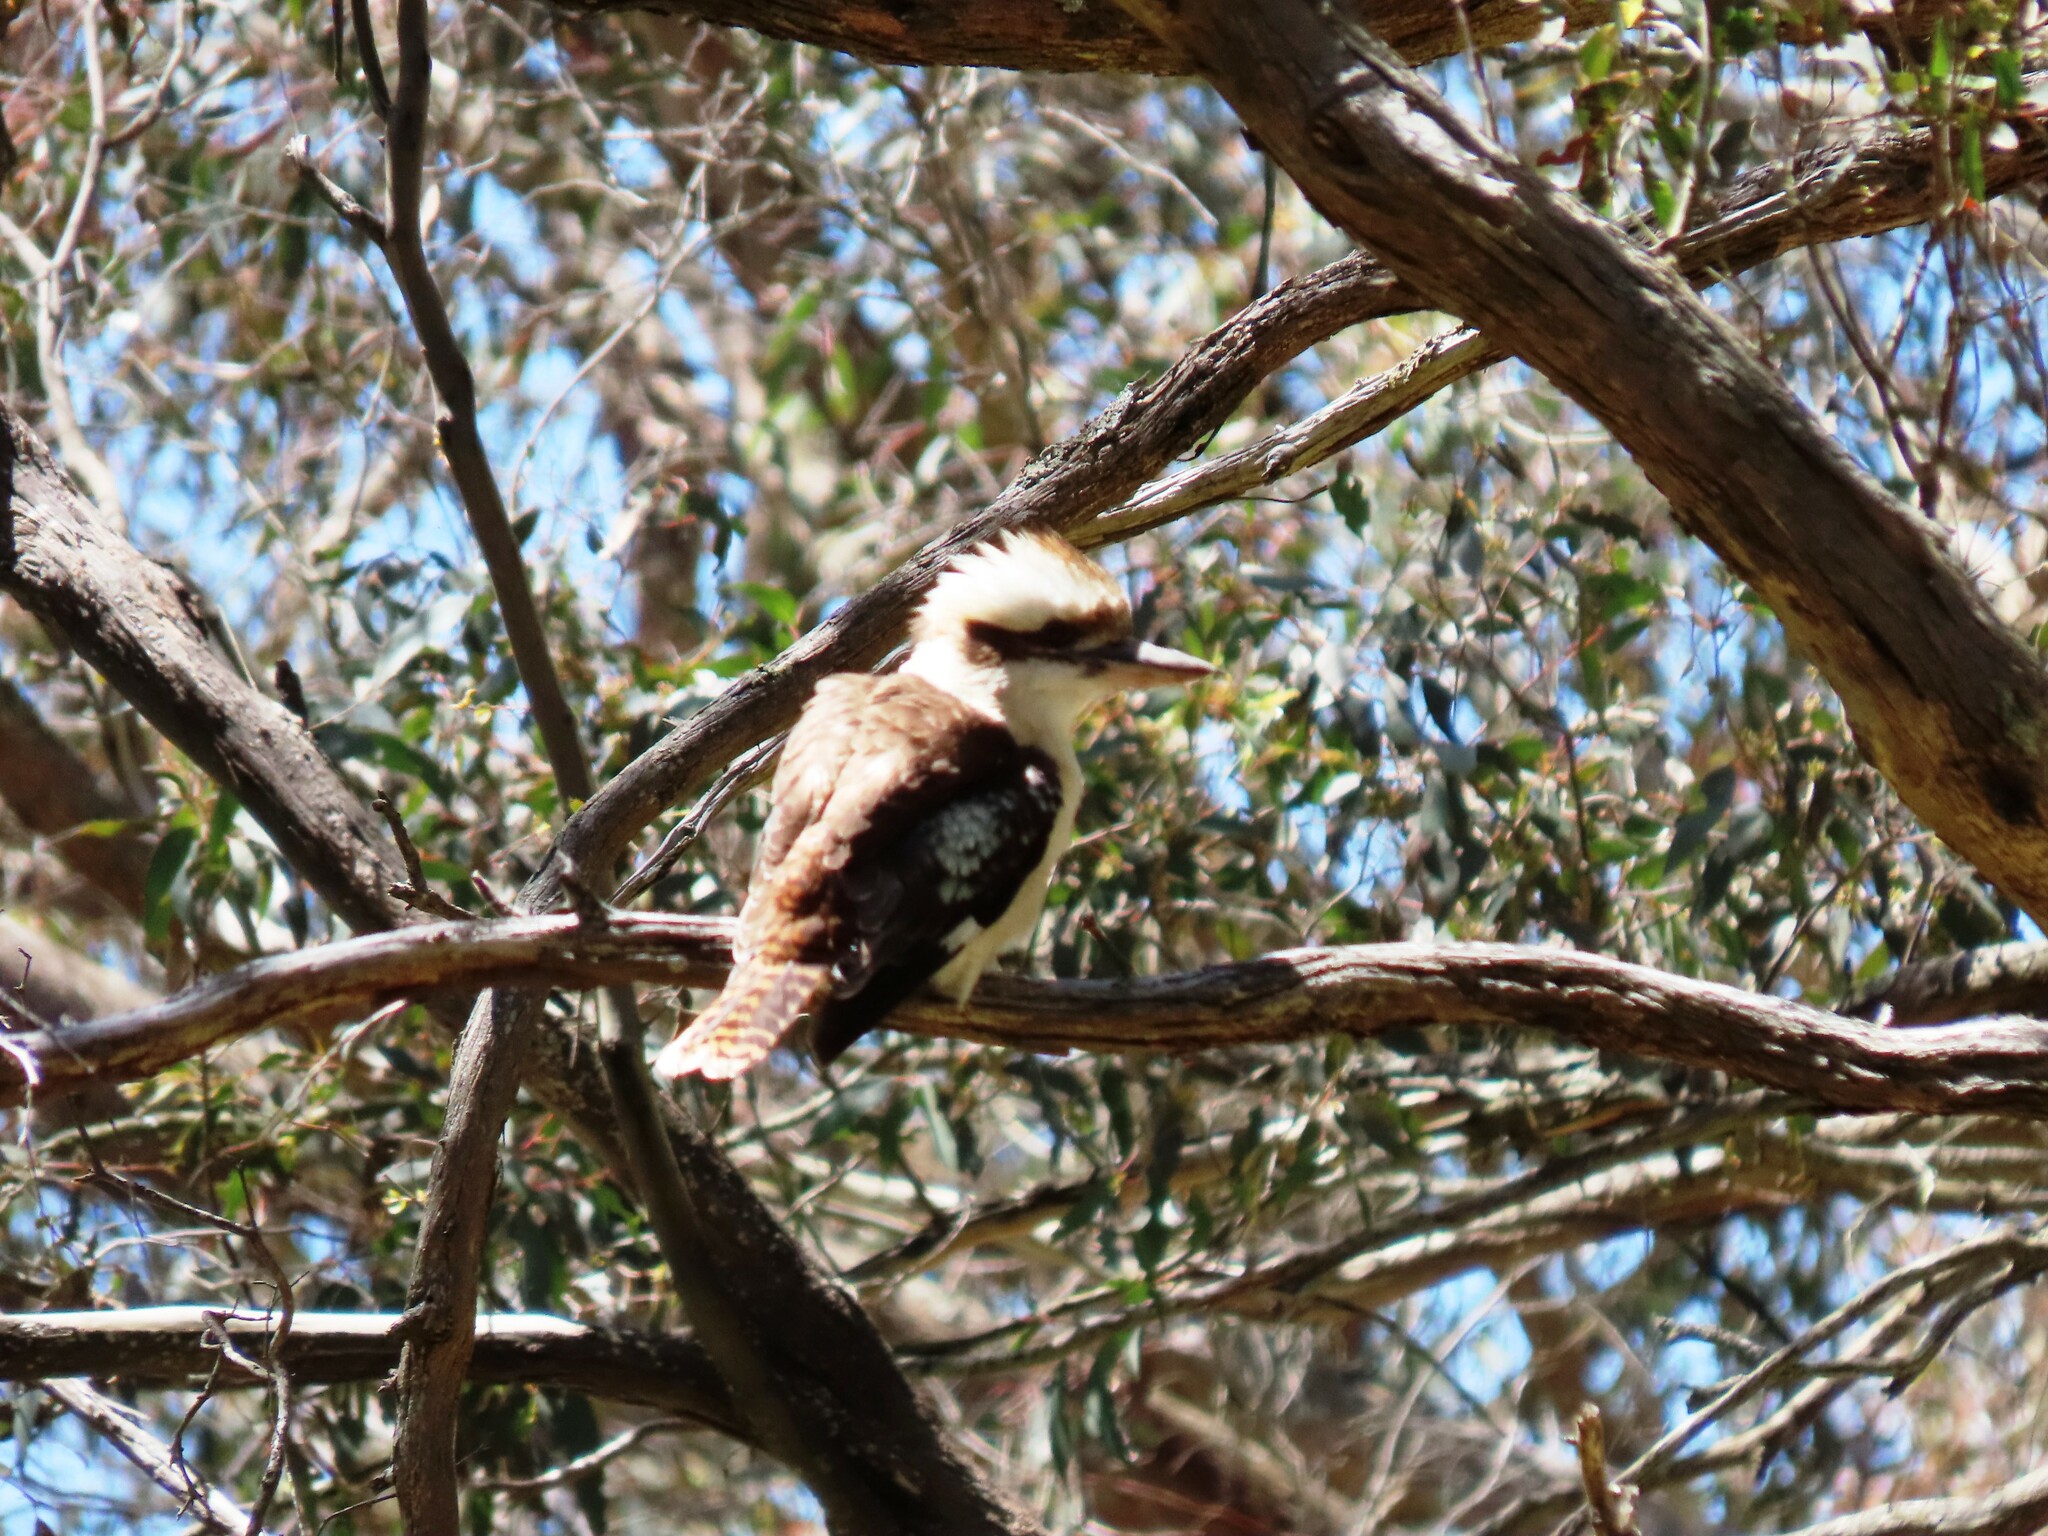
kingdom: Animalia
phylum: Chordata
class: Aves
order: Coraciiformes
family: Alcedinidae
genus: Dacelo
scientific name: Dacelo novaeguineae
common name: Laughing kookaburra
